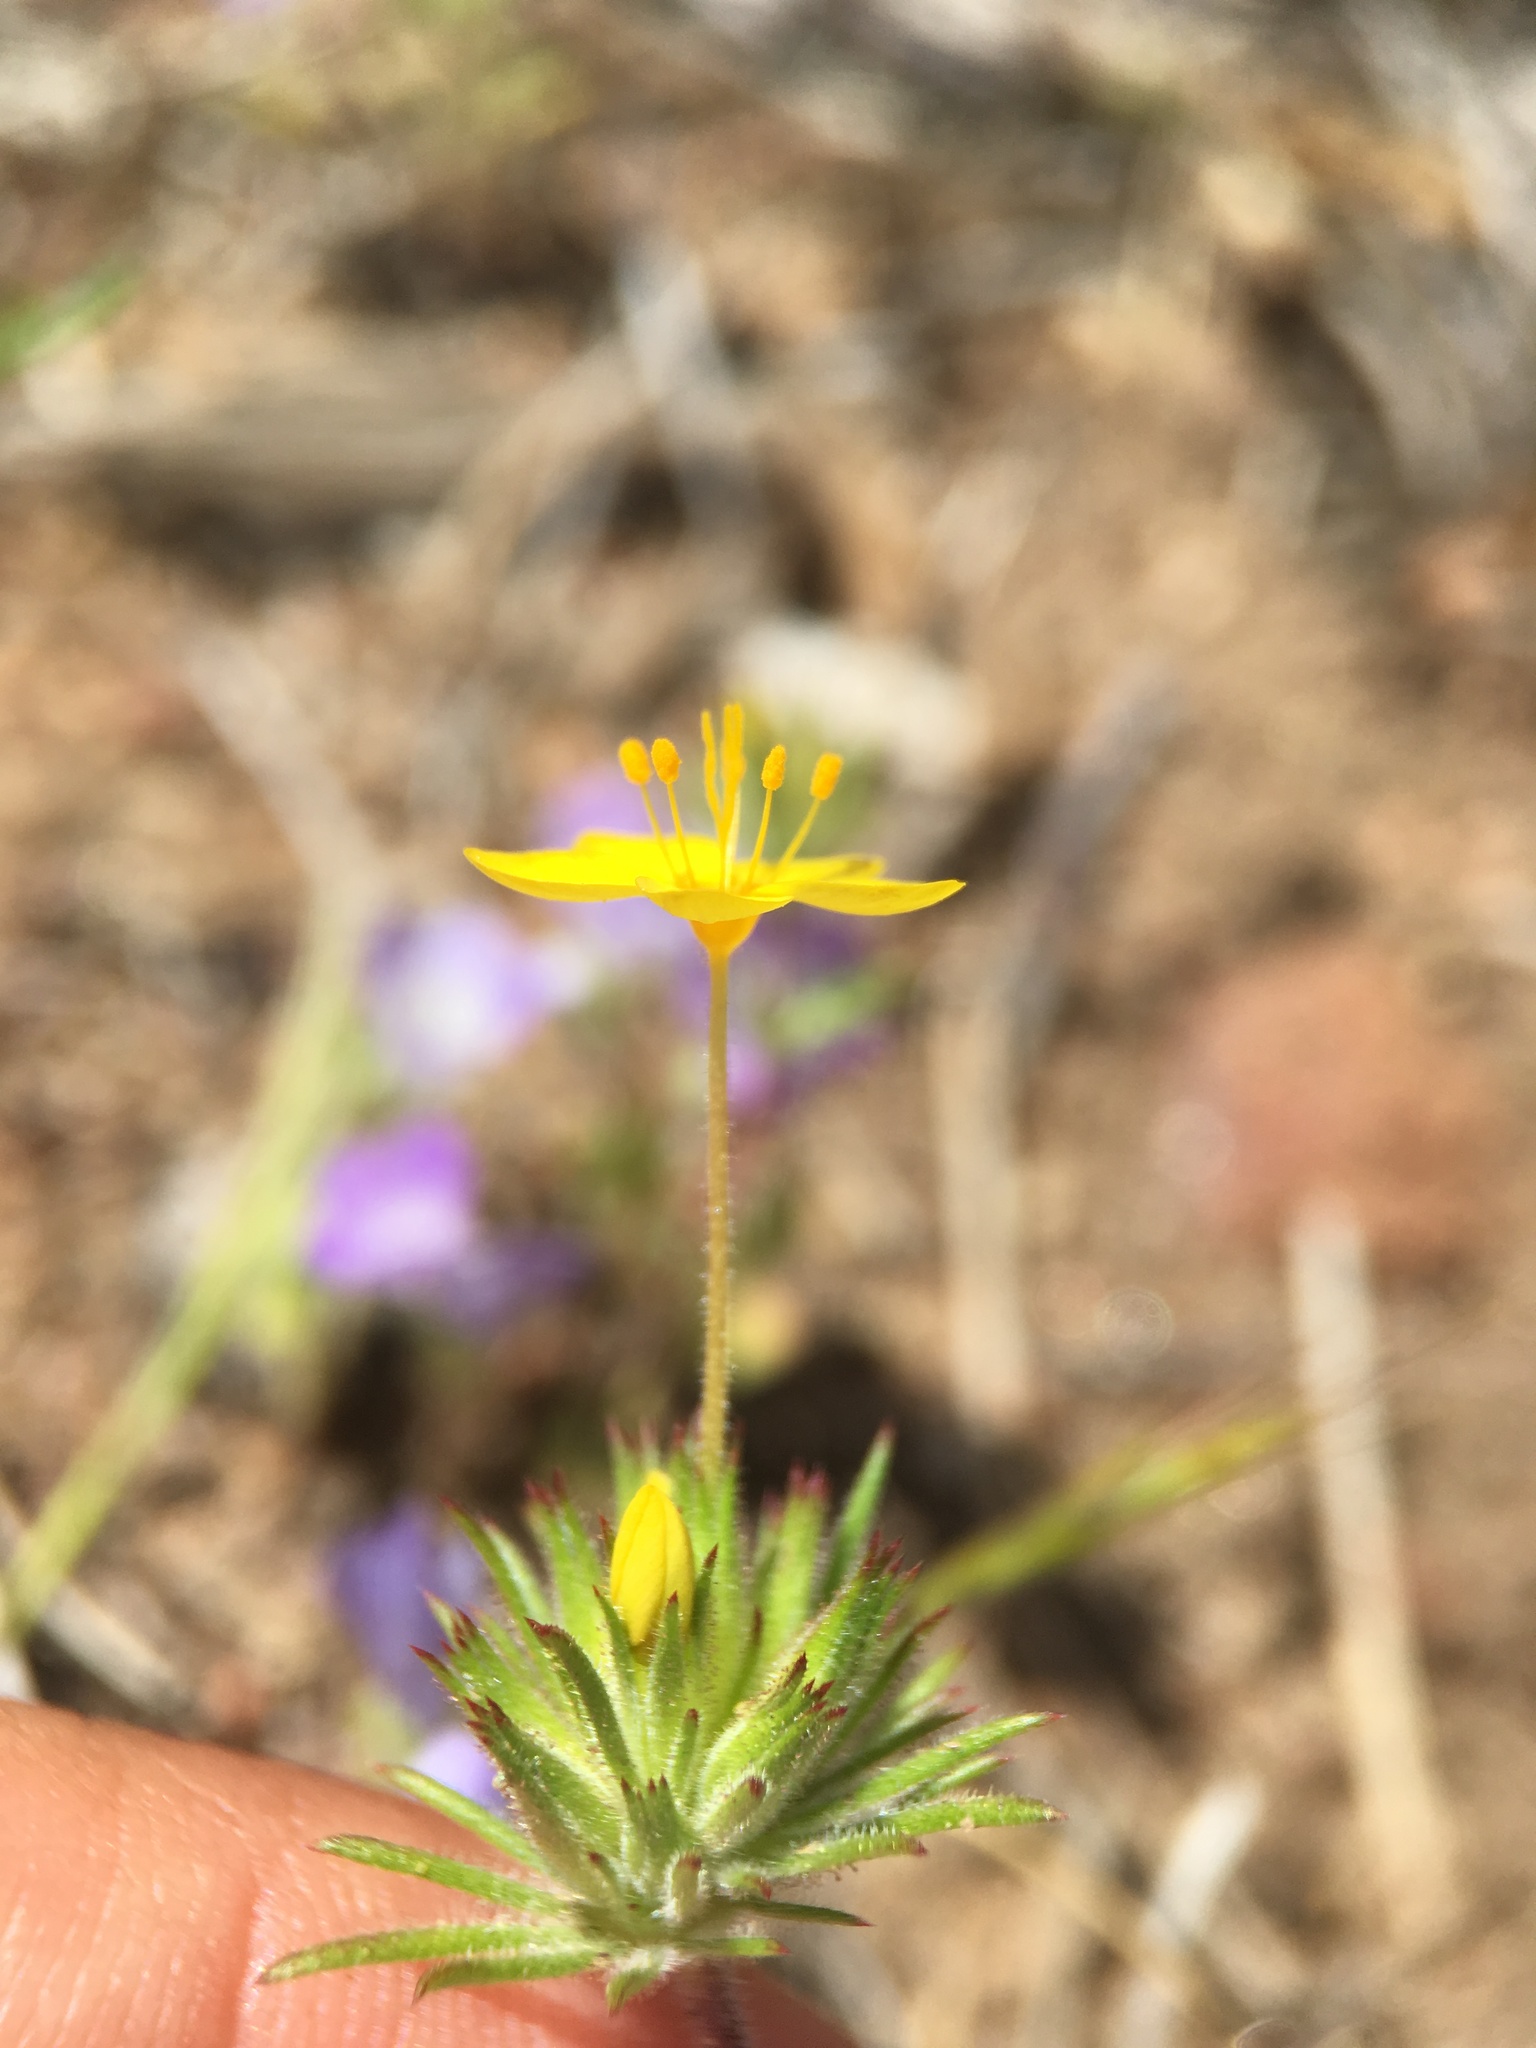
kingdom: Plantae
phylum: Tracheophyta
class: Magnoliopsida
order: Ericales
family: Polemoniaceae
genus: Leptosiphon
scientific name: Leptosiphon parviflorus
